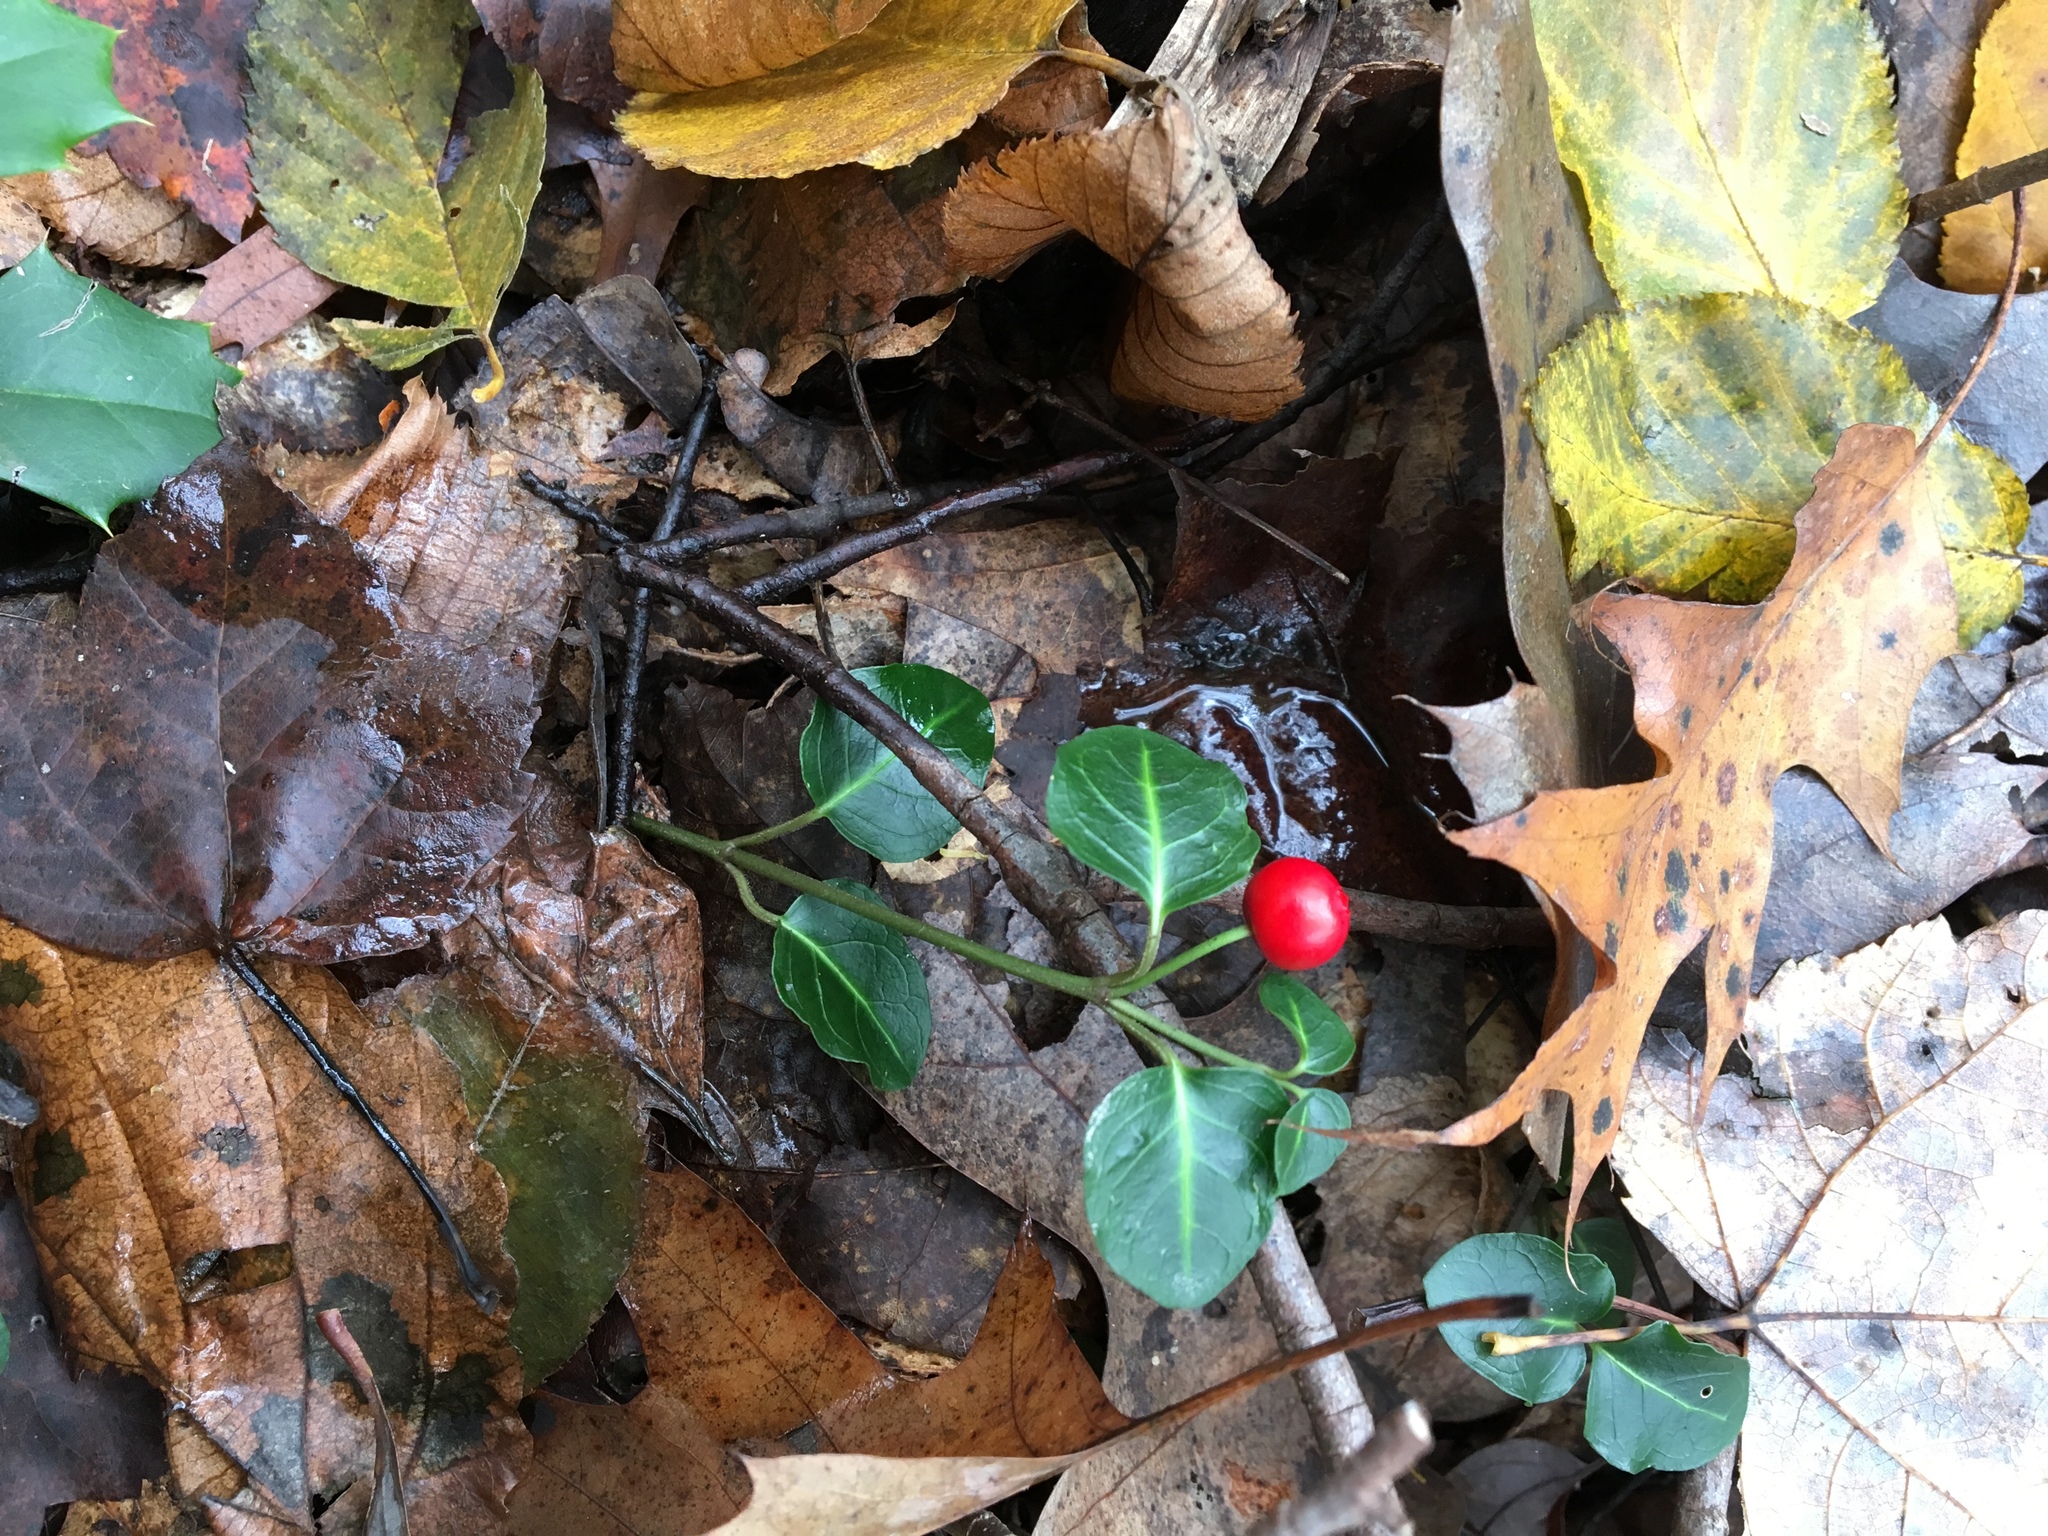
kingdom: Plantae
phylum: Tracheophyta
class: Magnoliopsida
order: Gentianales
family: Rubiaceae
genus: Mitchella
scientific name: Mitchella repens
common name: Partridge-berry
